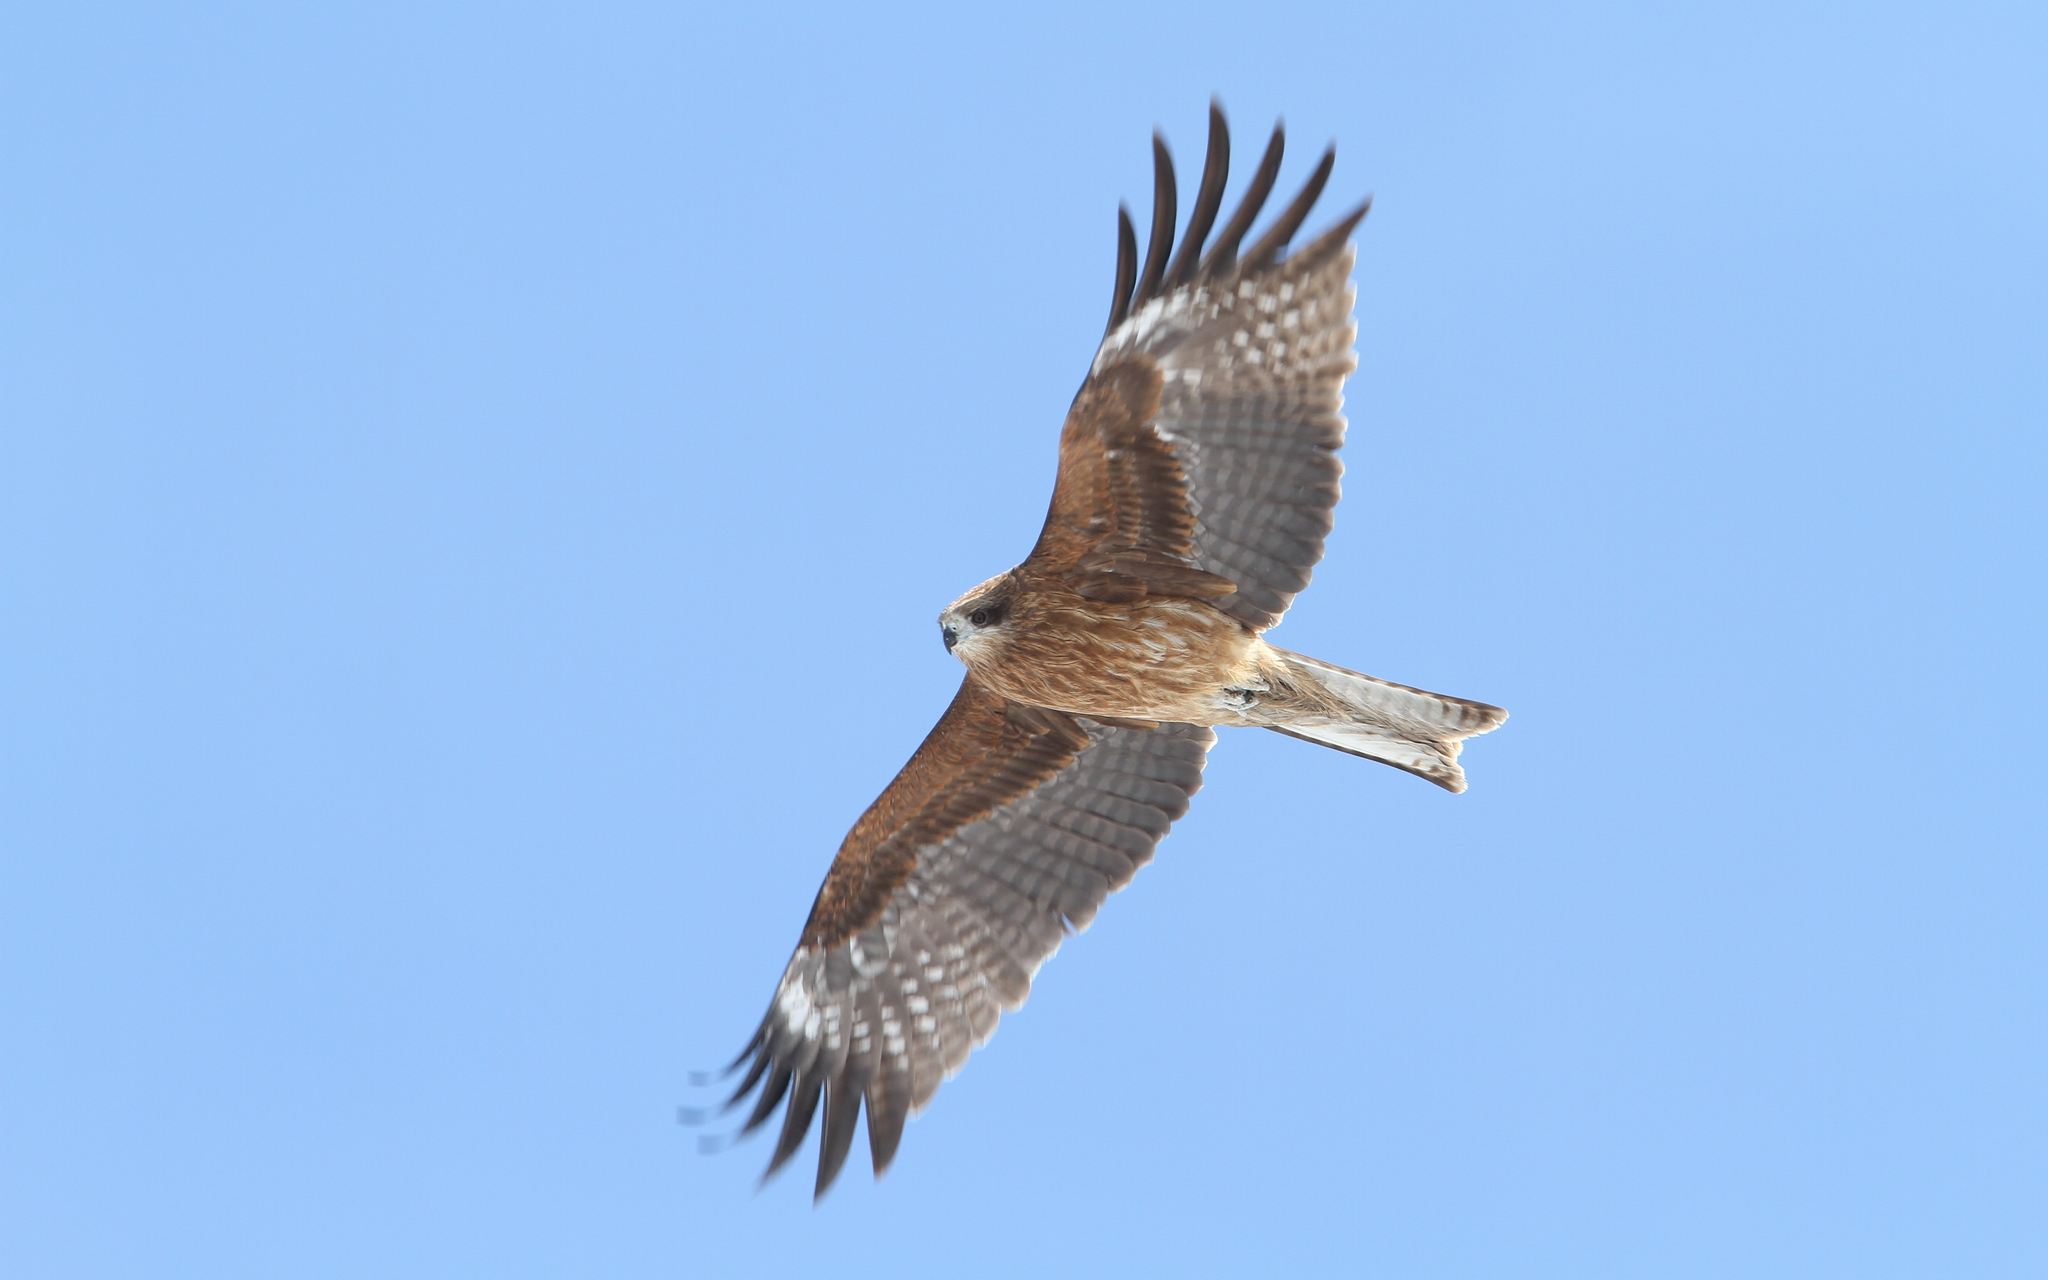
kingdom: Animalia
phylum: Chordata
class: Aves
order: Accipitriformes
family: Accipitridae
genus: Milvus
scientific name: Milvus migrans
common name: Black kite
